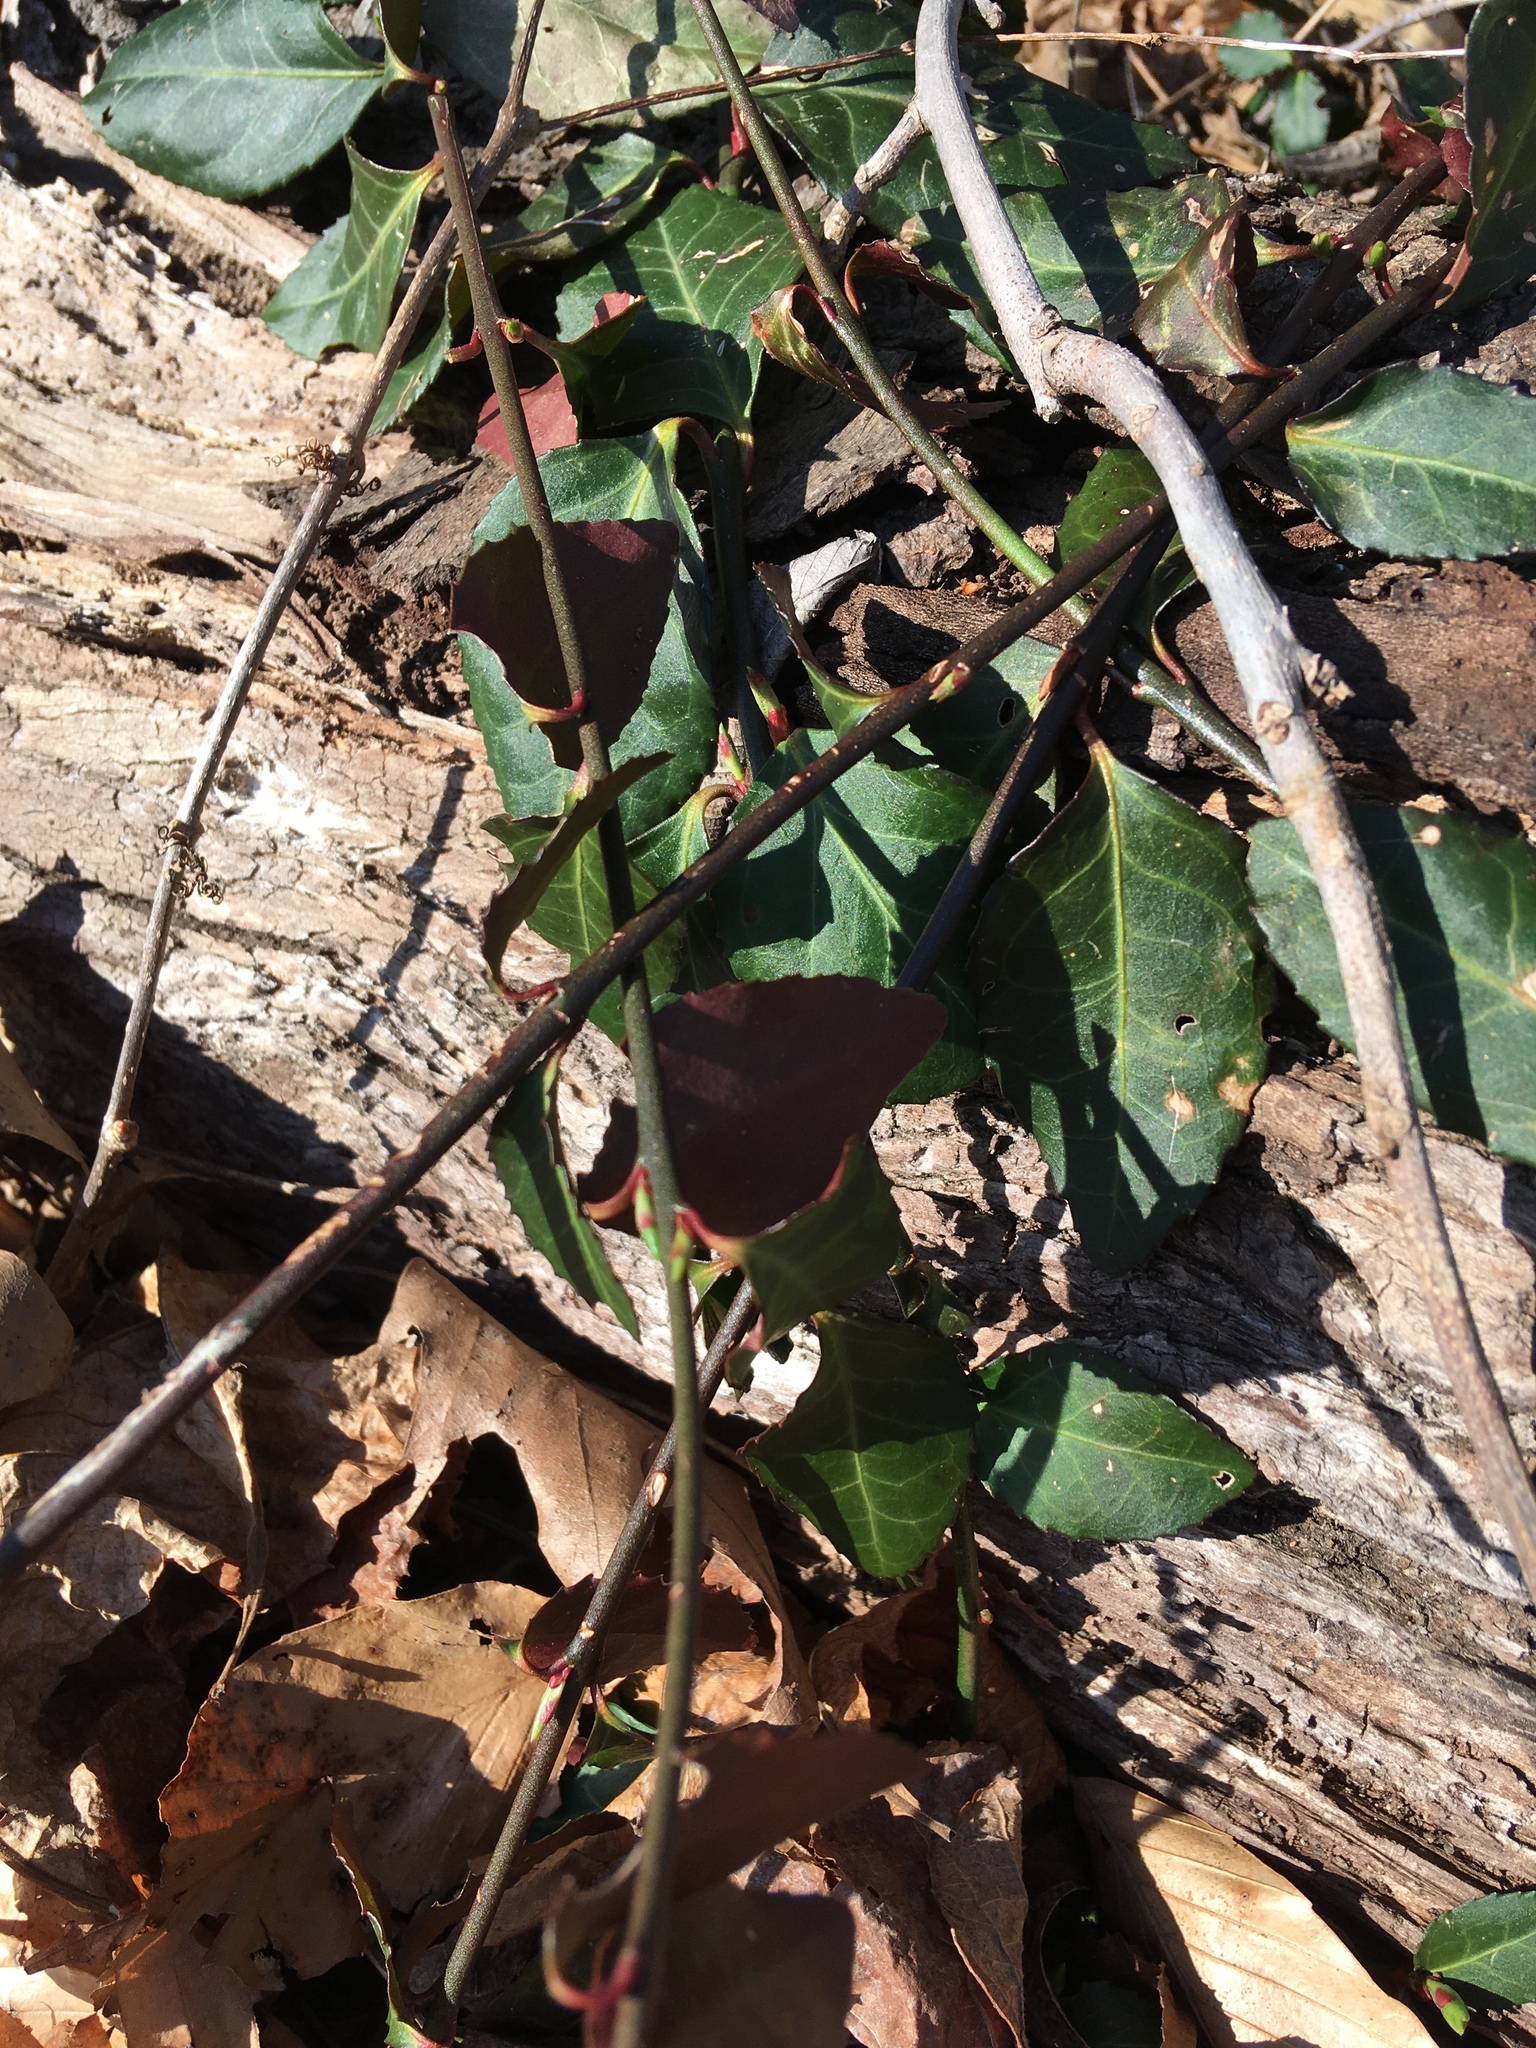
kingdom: Plantae
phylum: Tracheophyta
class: Magnoliopsida
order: Celastrales
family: Celastraceae
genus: Euonymus
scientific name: Euonymus fortunei
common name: Climbing euonymus
